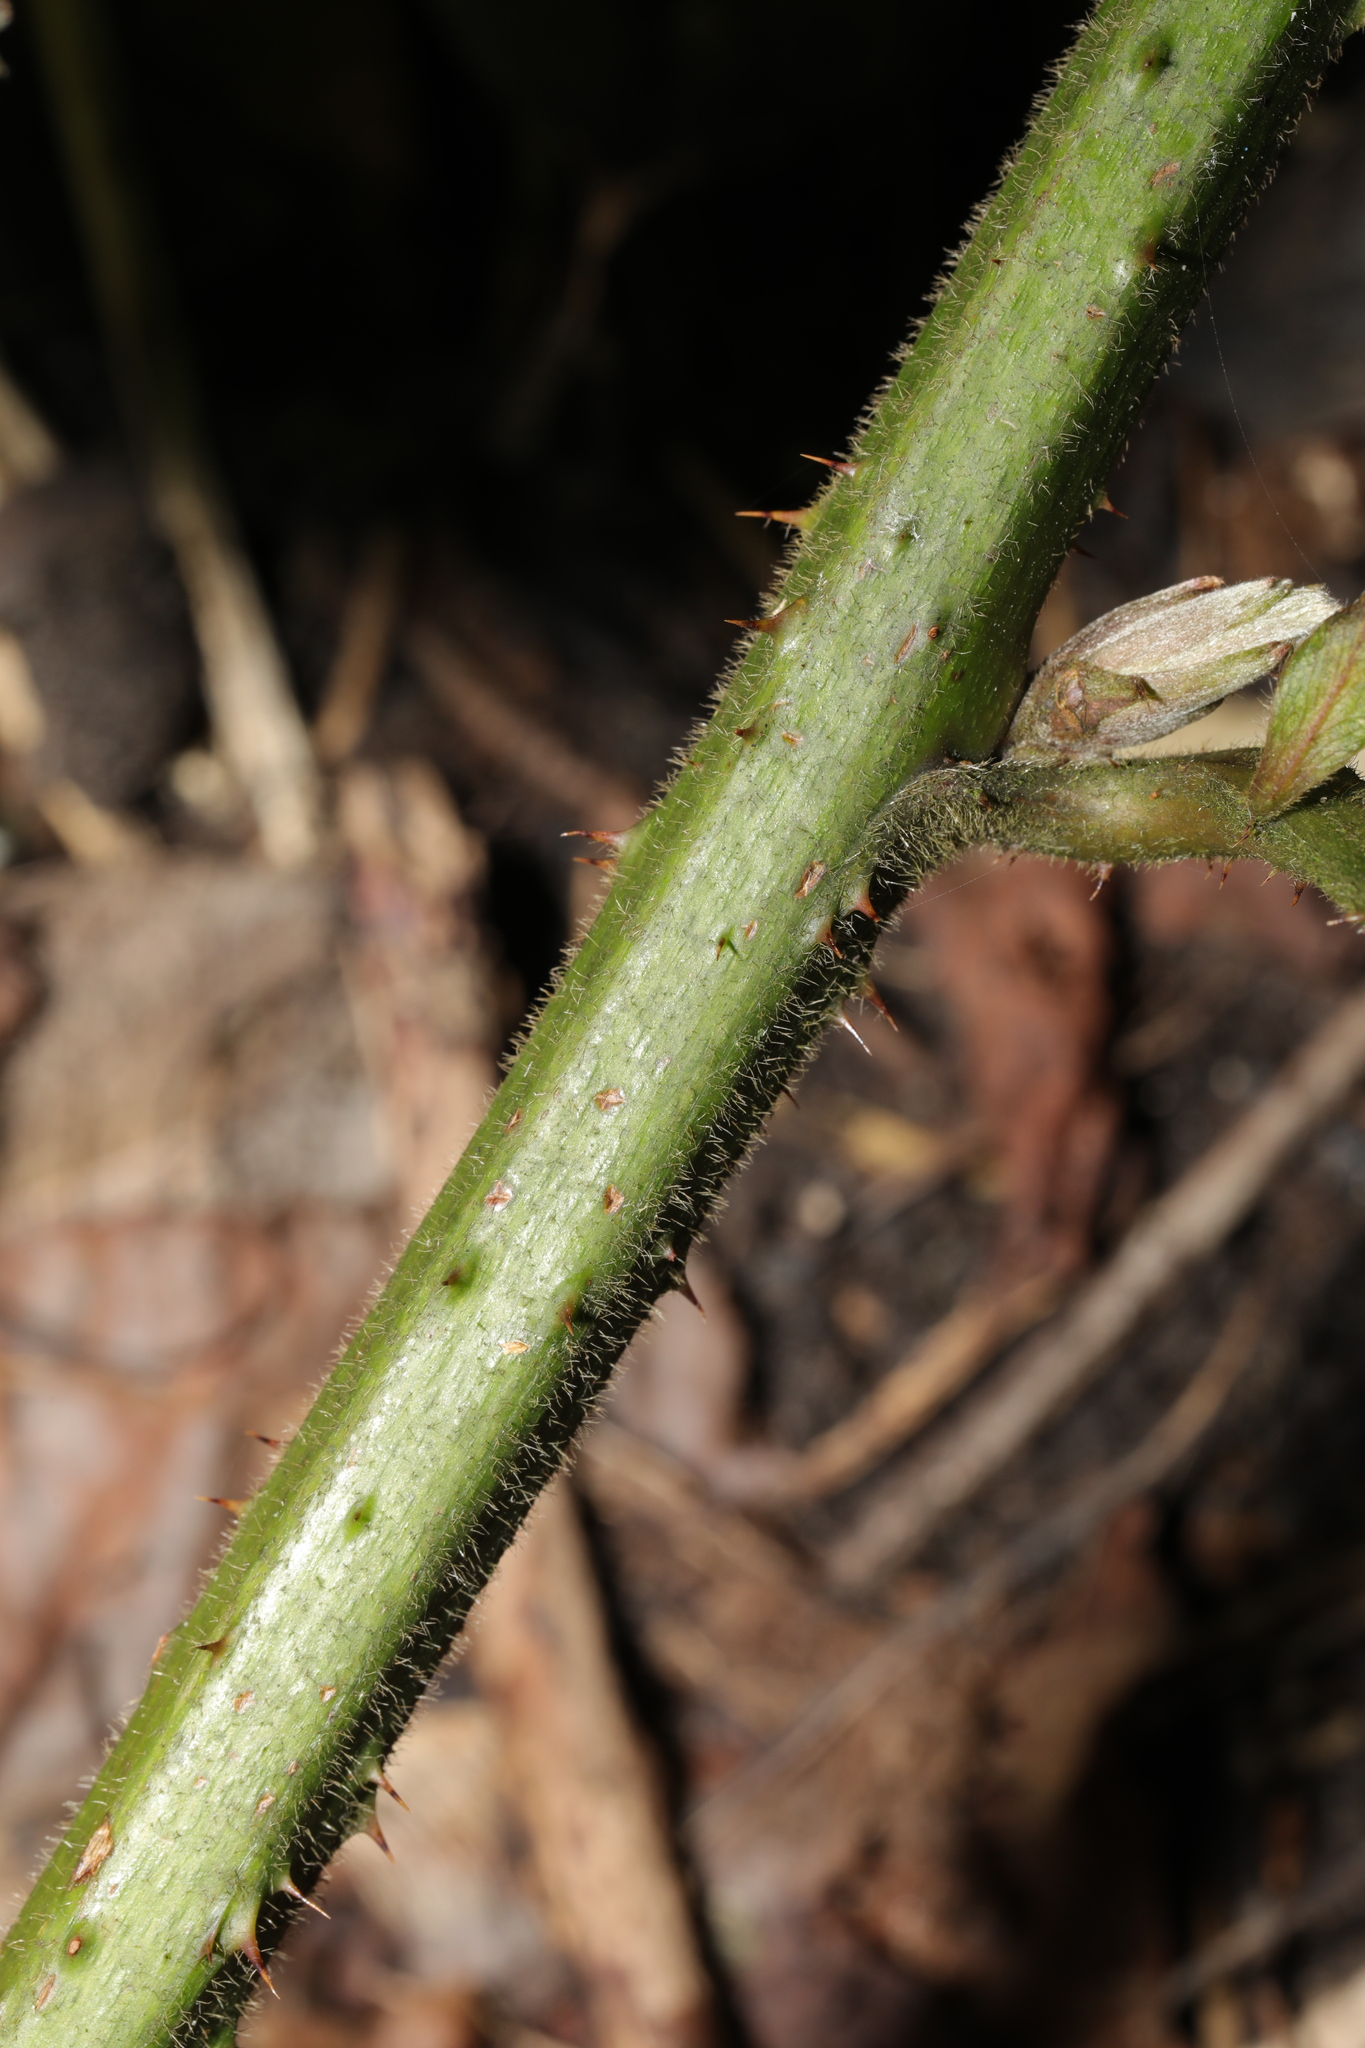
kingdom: Plantae
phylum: Tracheophyta
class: Magnoliopsida
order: Rosales
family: Rosaceae
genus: Rubus
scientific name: Rubus subtercanens
